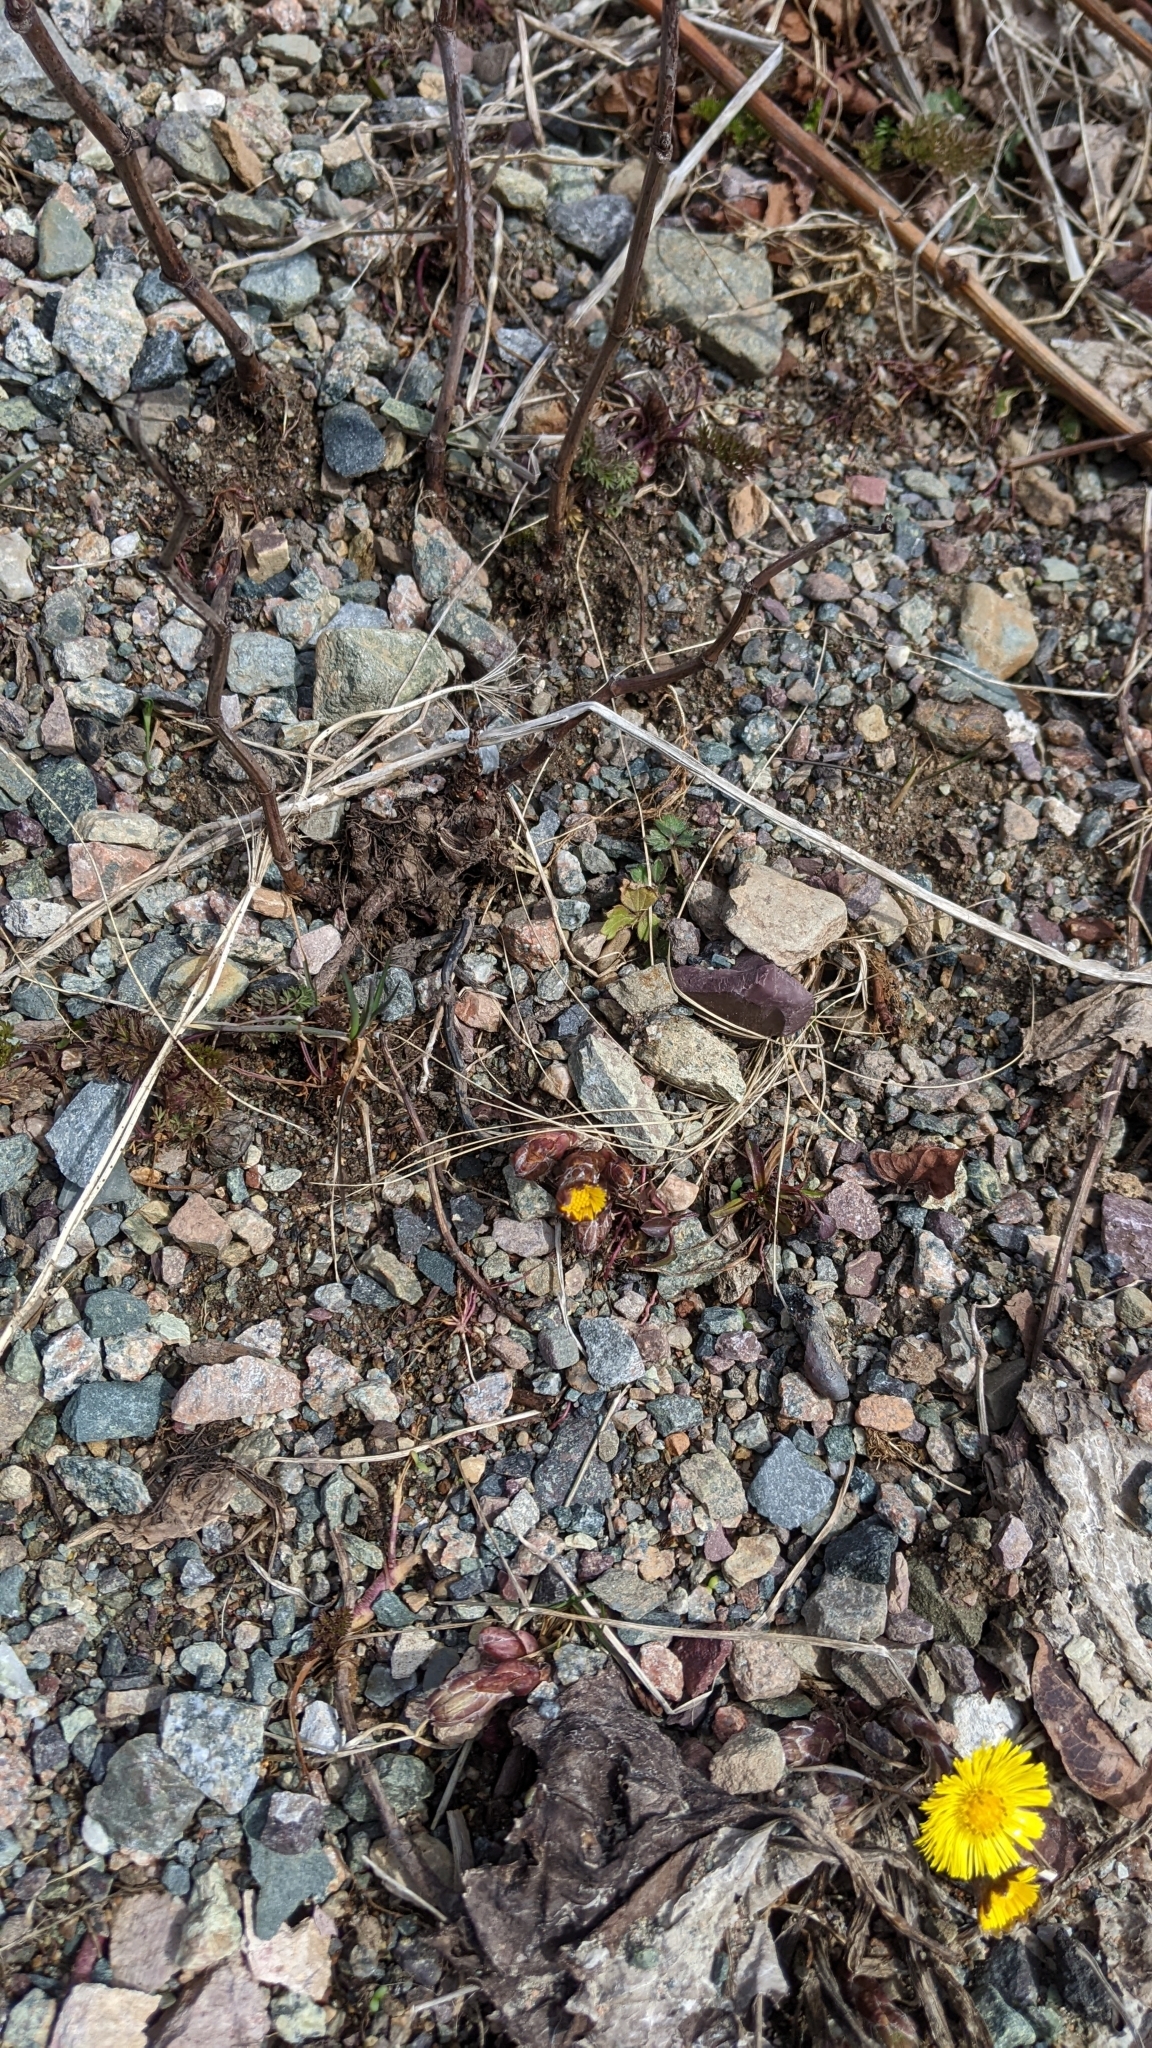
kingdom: Plantae
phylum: Tracheophyta
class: Magnoliopsida
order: Asterales
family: Asteraceae
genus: Tussilago
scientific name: Tussilago farfara
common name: Coltsfoot
